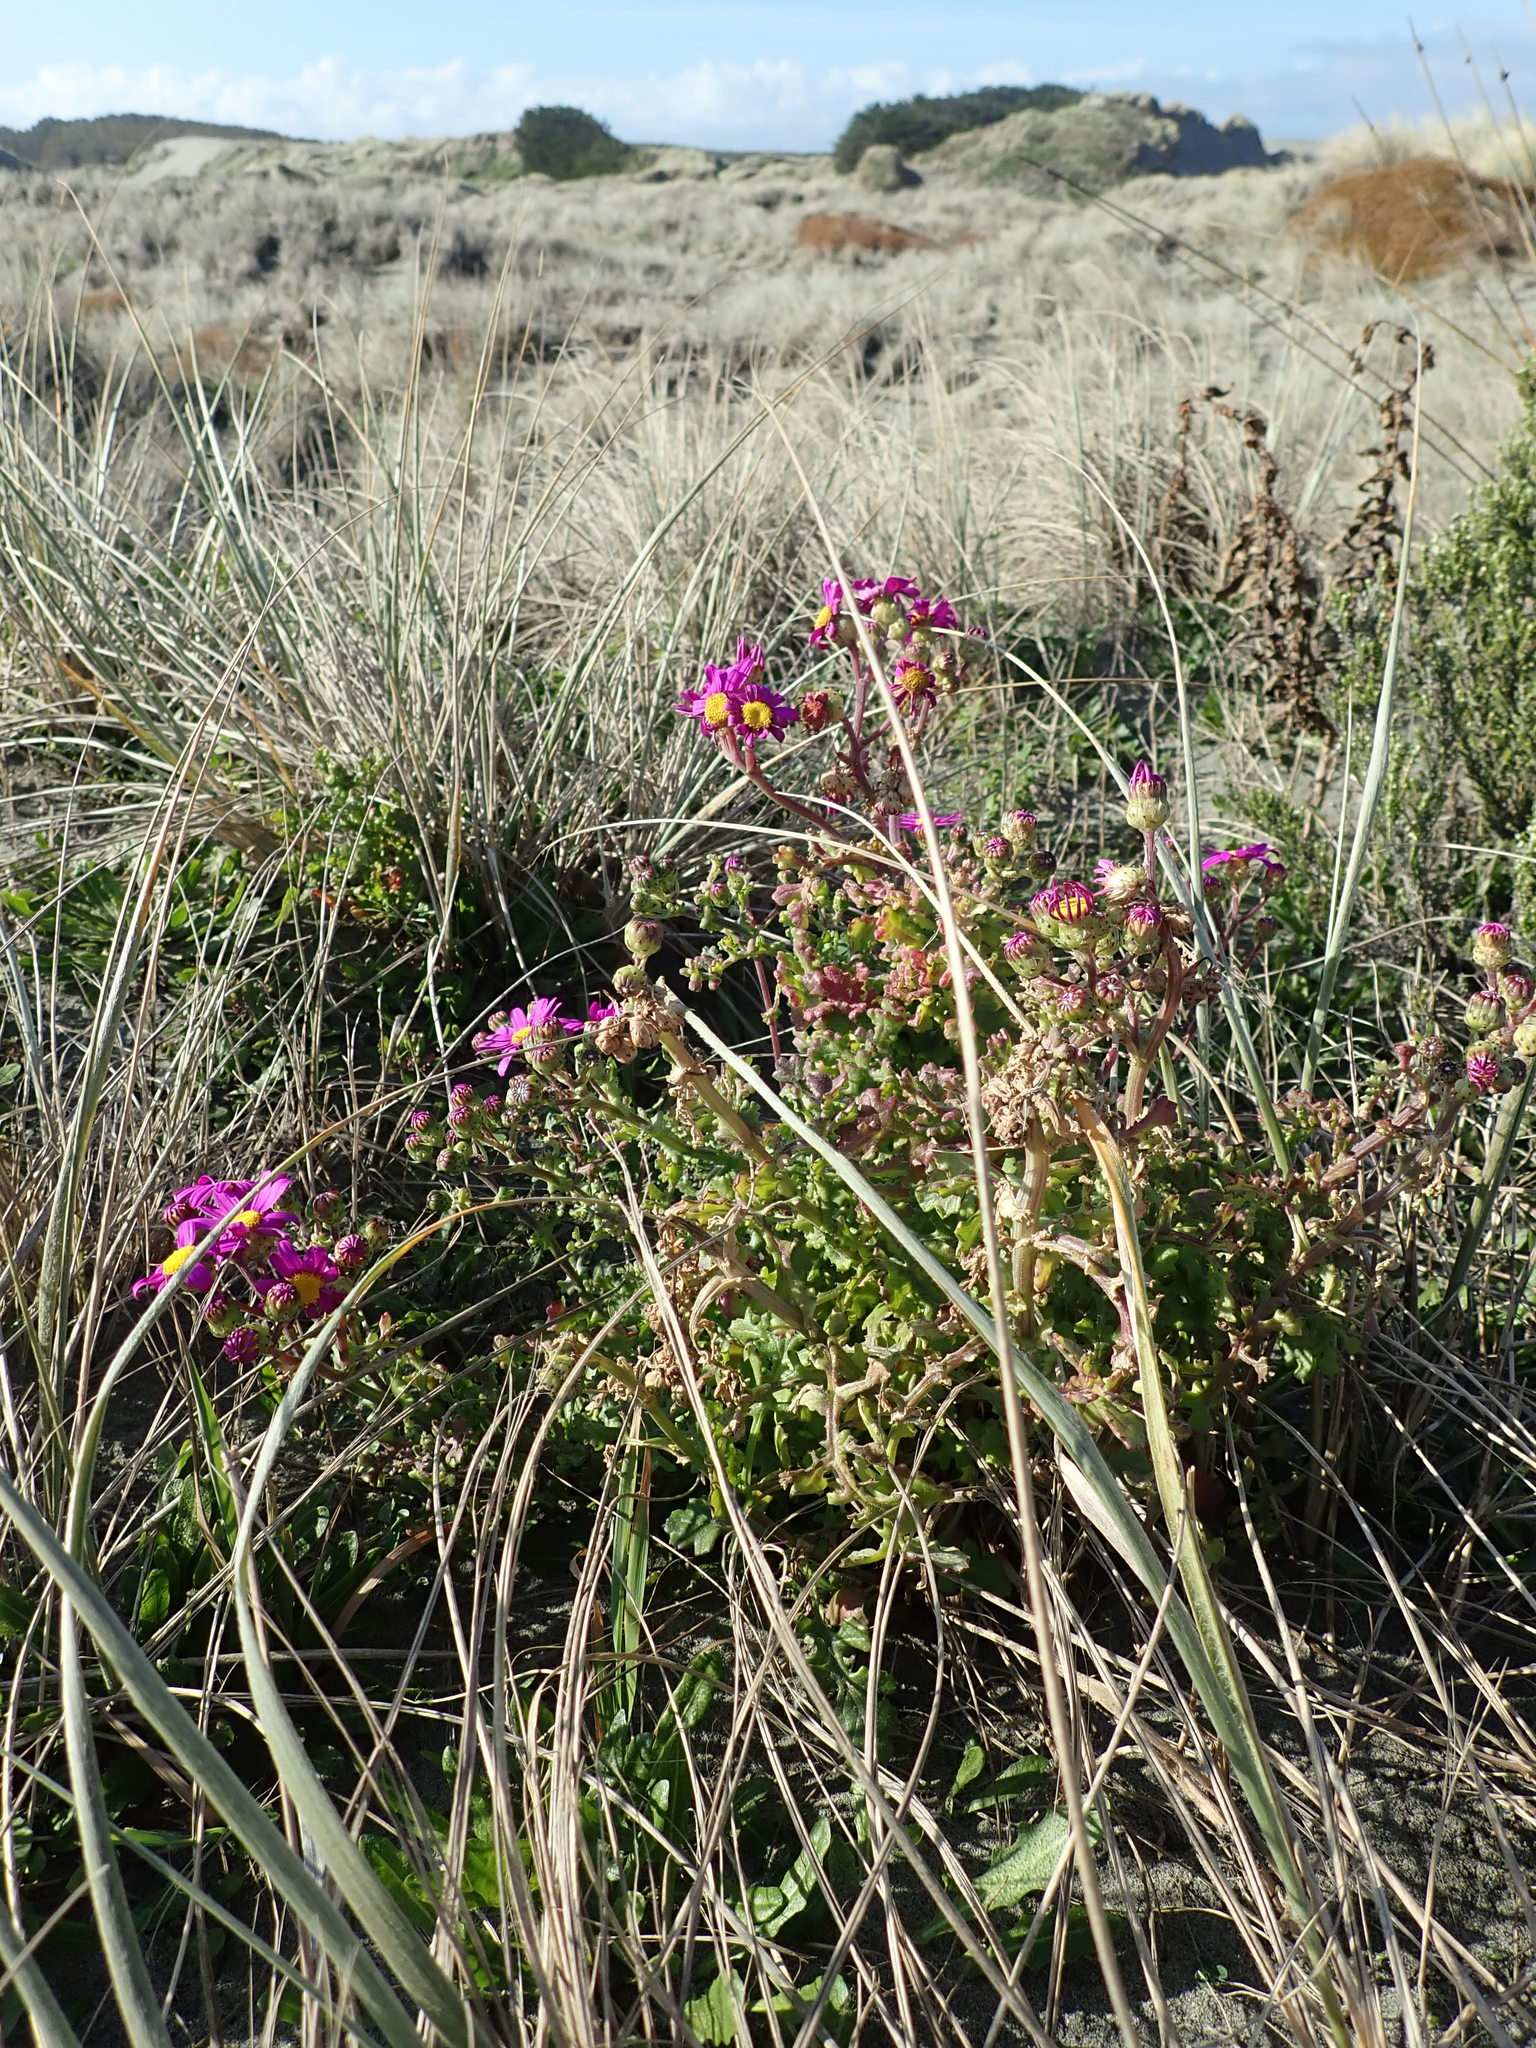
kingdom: Plantae
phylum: Tracheophyta
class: Magnoliopsida
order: Asterales
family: Asteraceae
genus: Senecio
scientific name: Senecio elegans
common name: Purple groundsel
